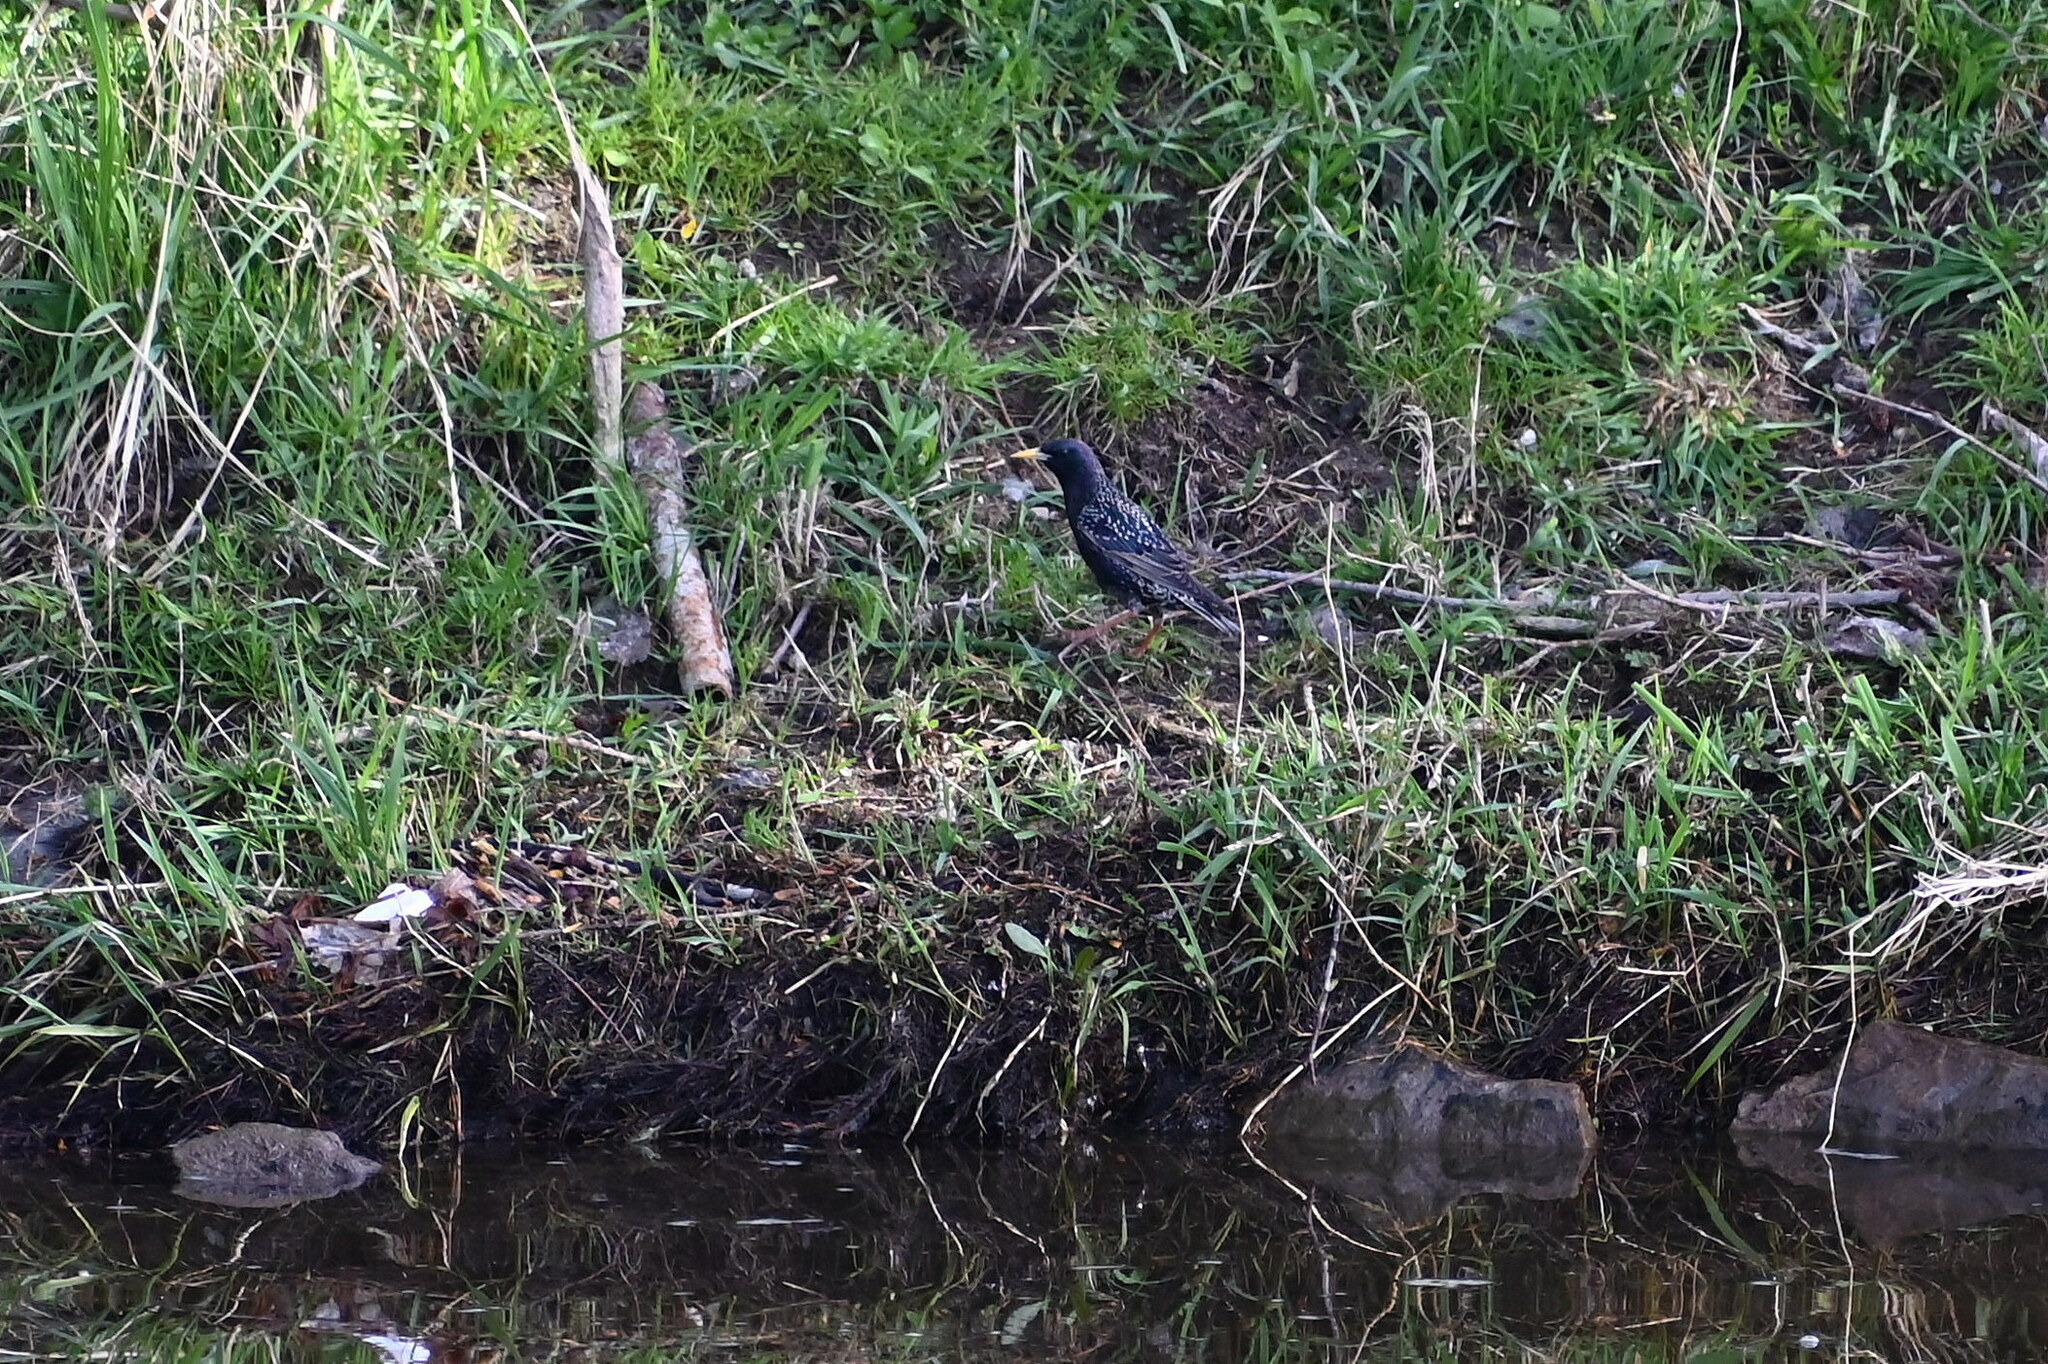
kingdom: Animalia
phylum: Chordata
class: Aves
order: Passeriformes
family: Sturnidae
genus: Sturnus
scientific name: Sturnus vulgaris
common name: Common starling
